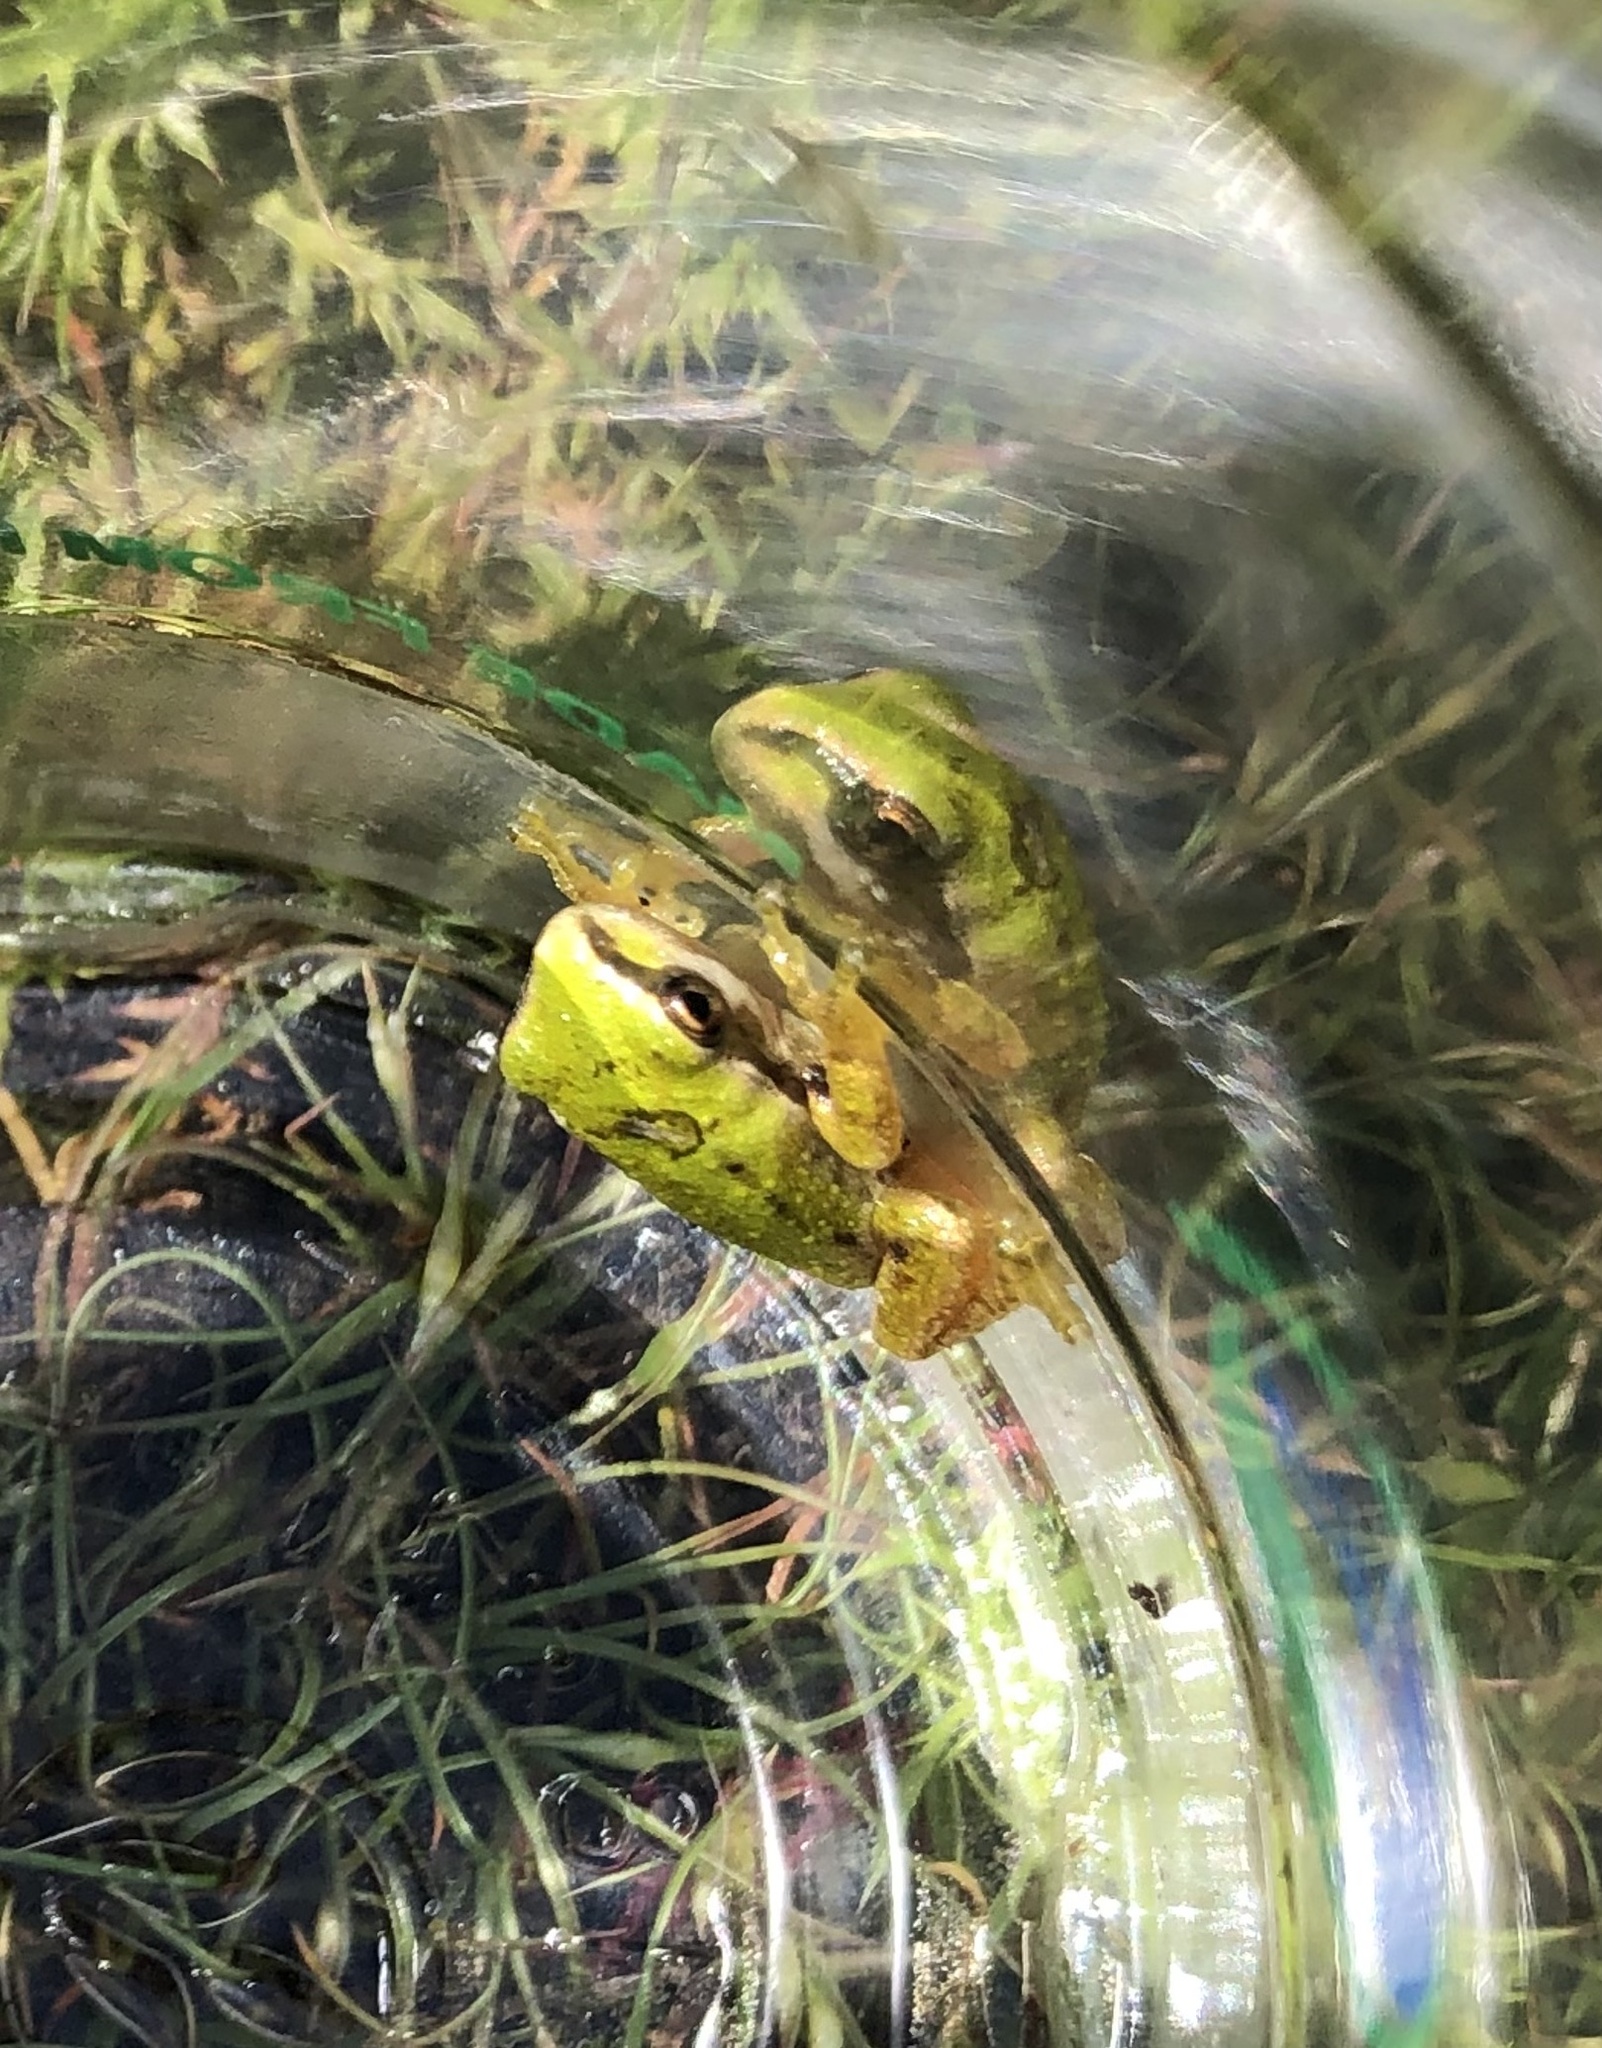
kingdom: Animalia
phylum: Chordata
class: Amphibia
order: Anura
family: Hylidae
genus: Pseudacris
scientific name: Pseudacris regilla
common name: Pacific chorus frog
